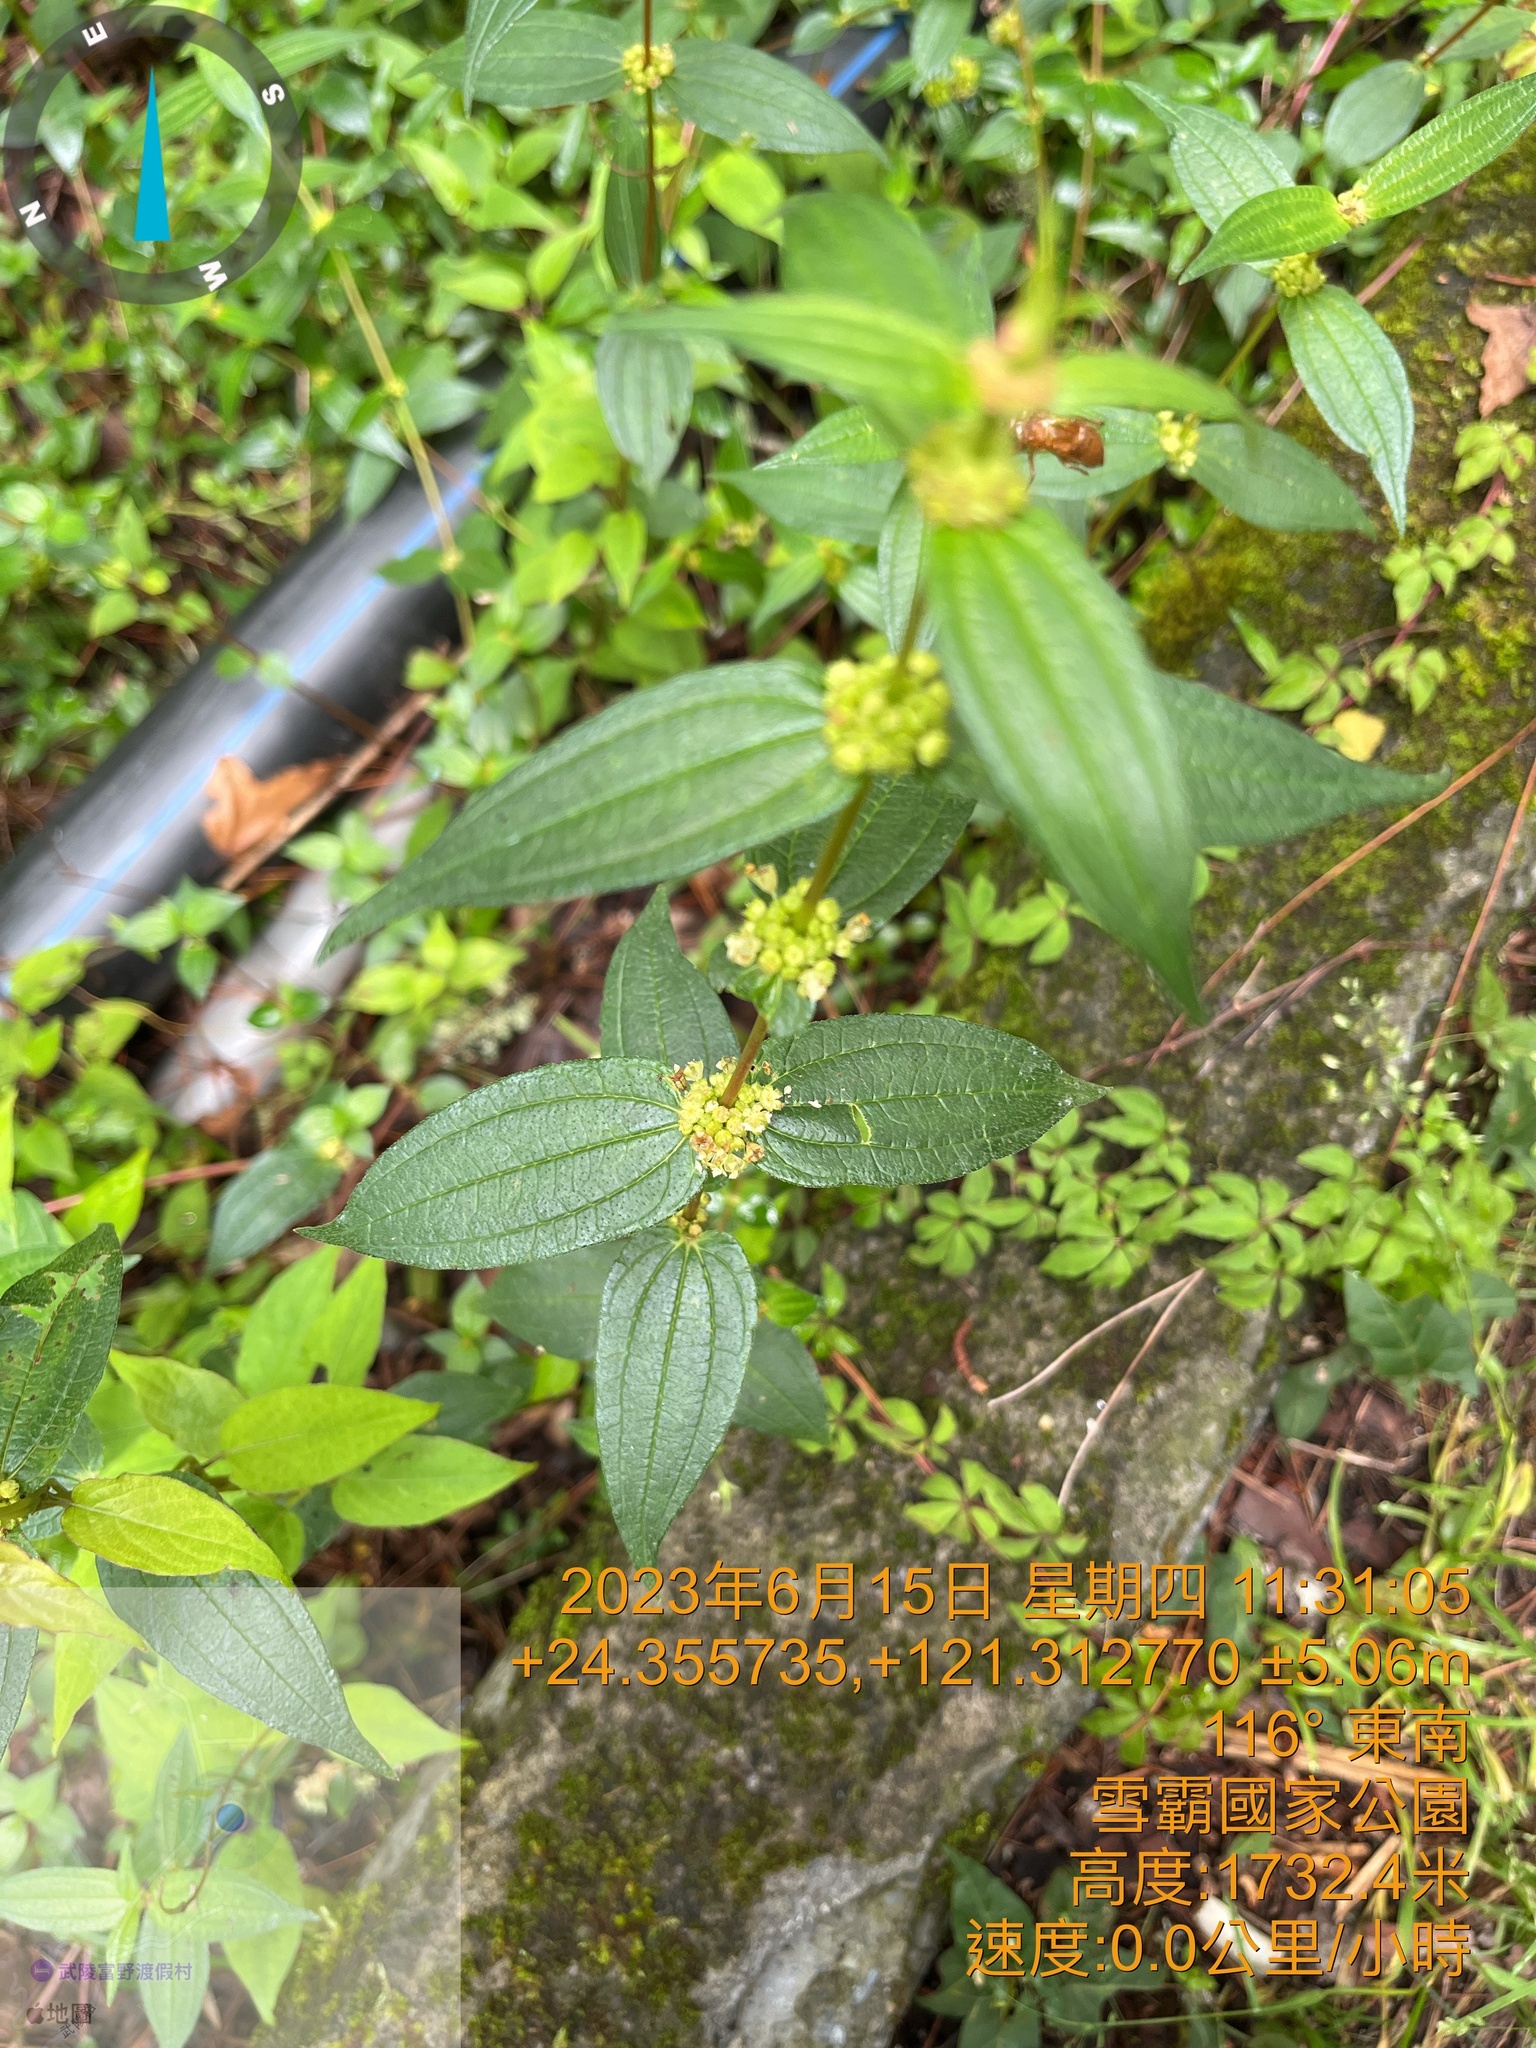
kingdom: Plantae
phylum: Tracheophyta
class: Magnoliopsida
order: Rosales
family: Urticaceae
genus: Gonostegia
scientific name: Gonostegia triandra
